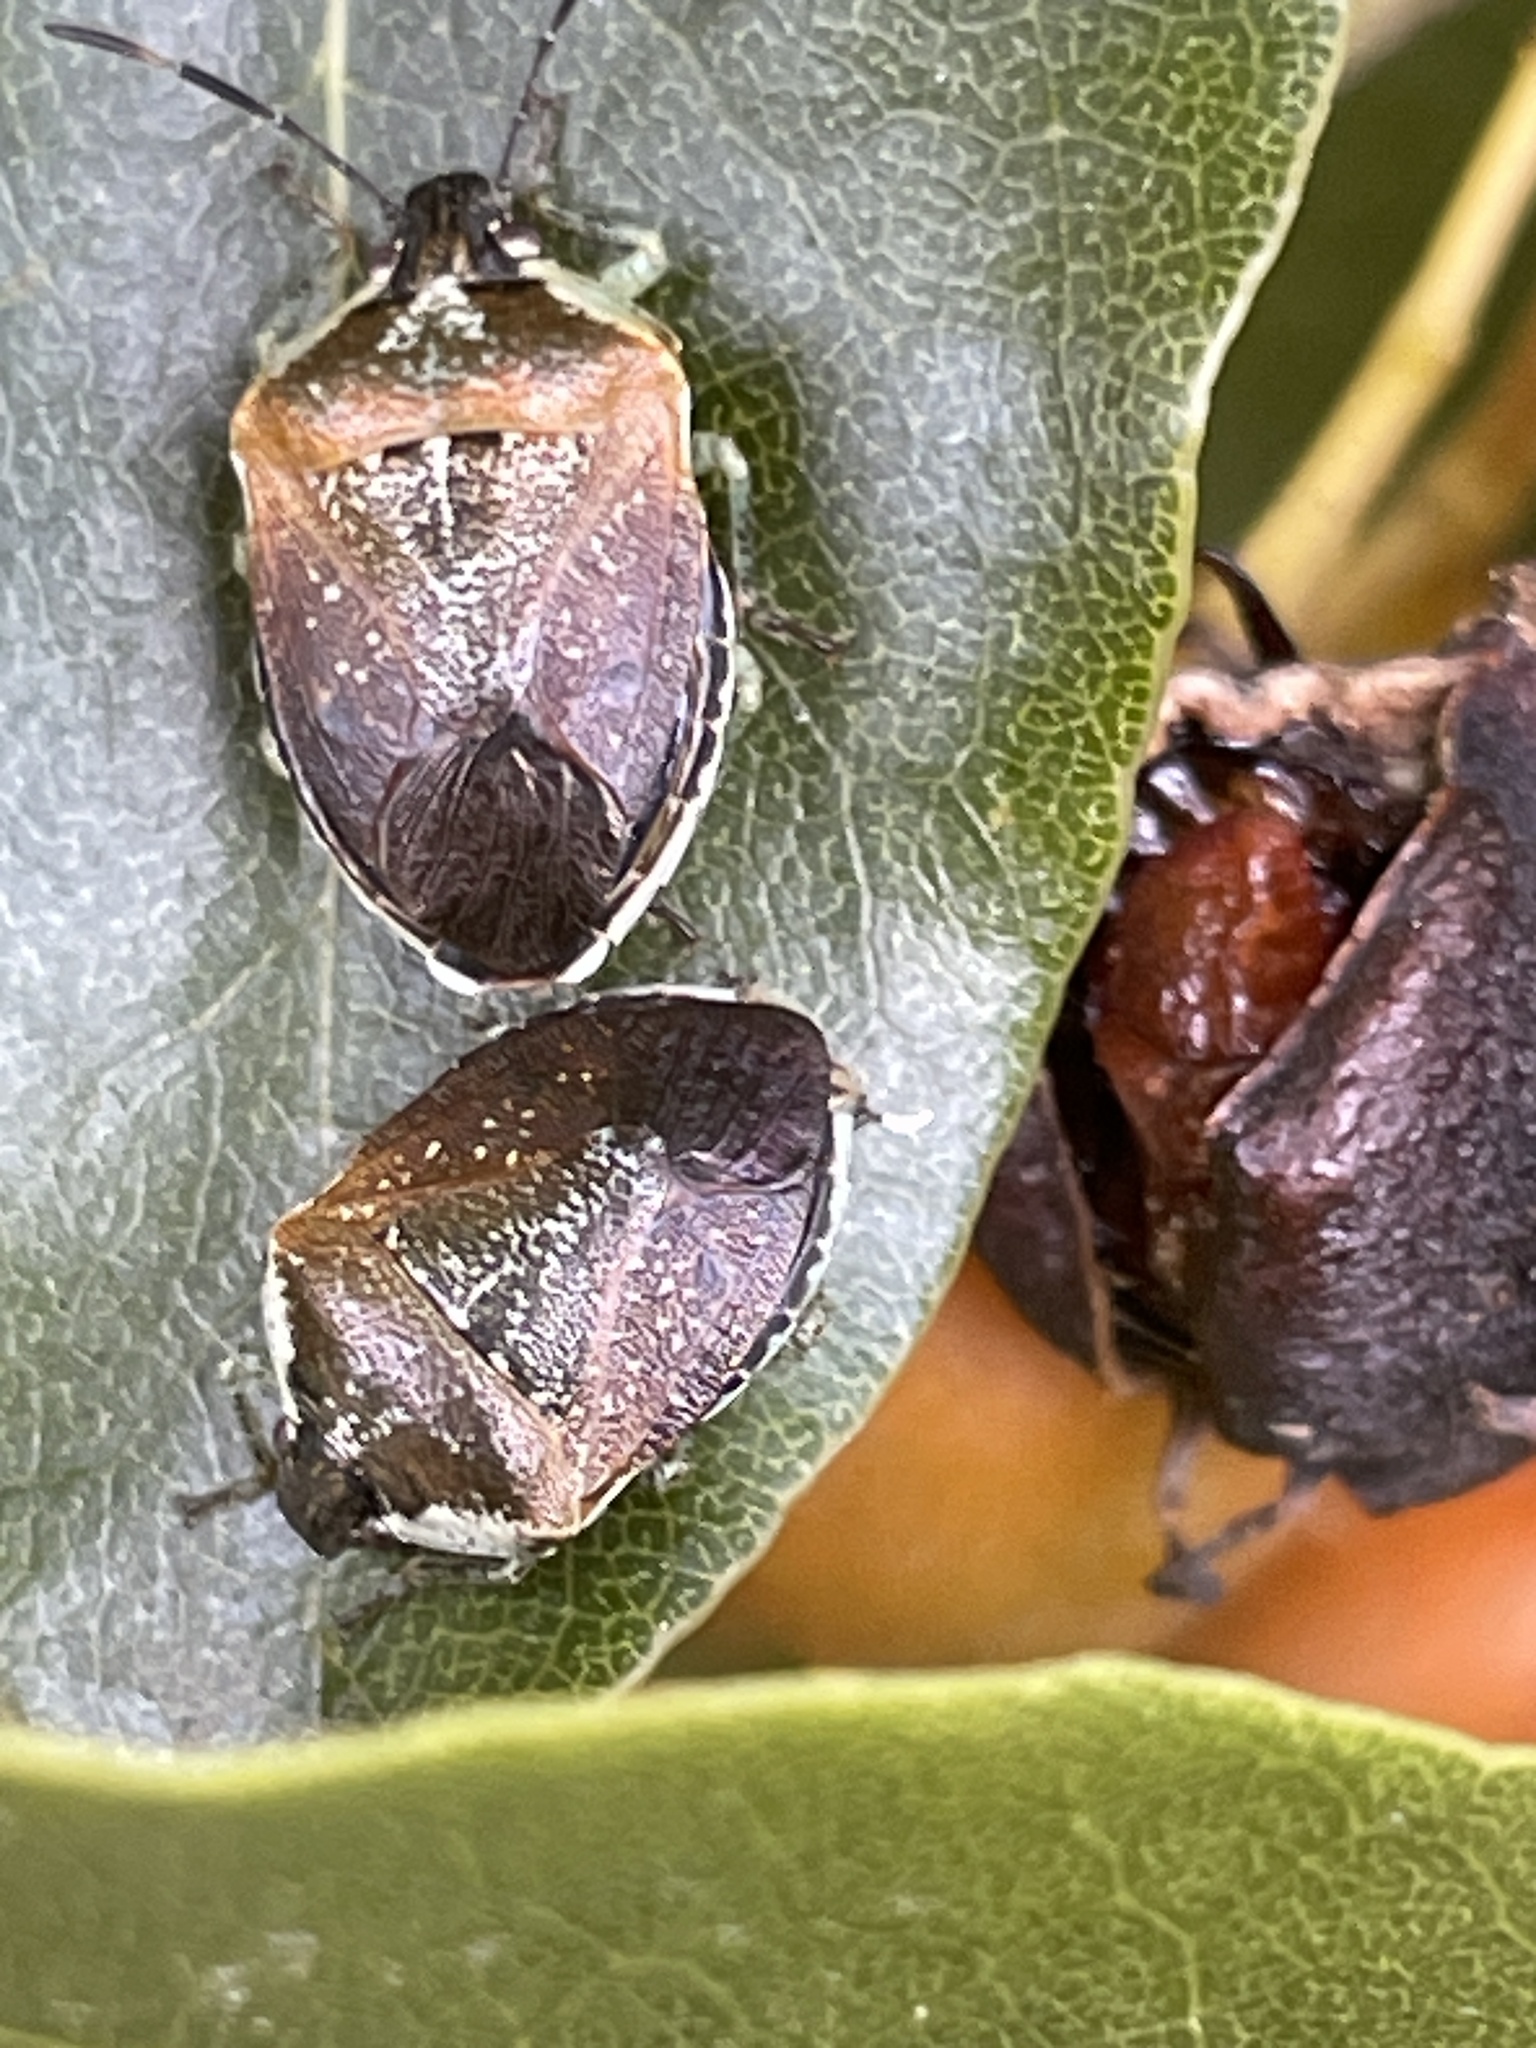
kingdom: Animalia
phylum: Arthropoda
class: Insecta
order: Hemiptera
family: Pentatomidae
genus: Monteithiella
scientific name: Monteithiella
